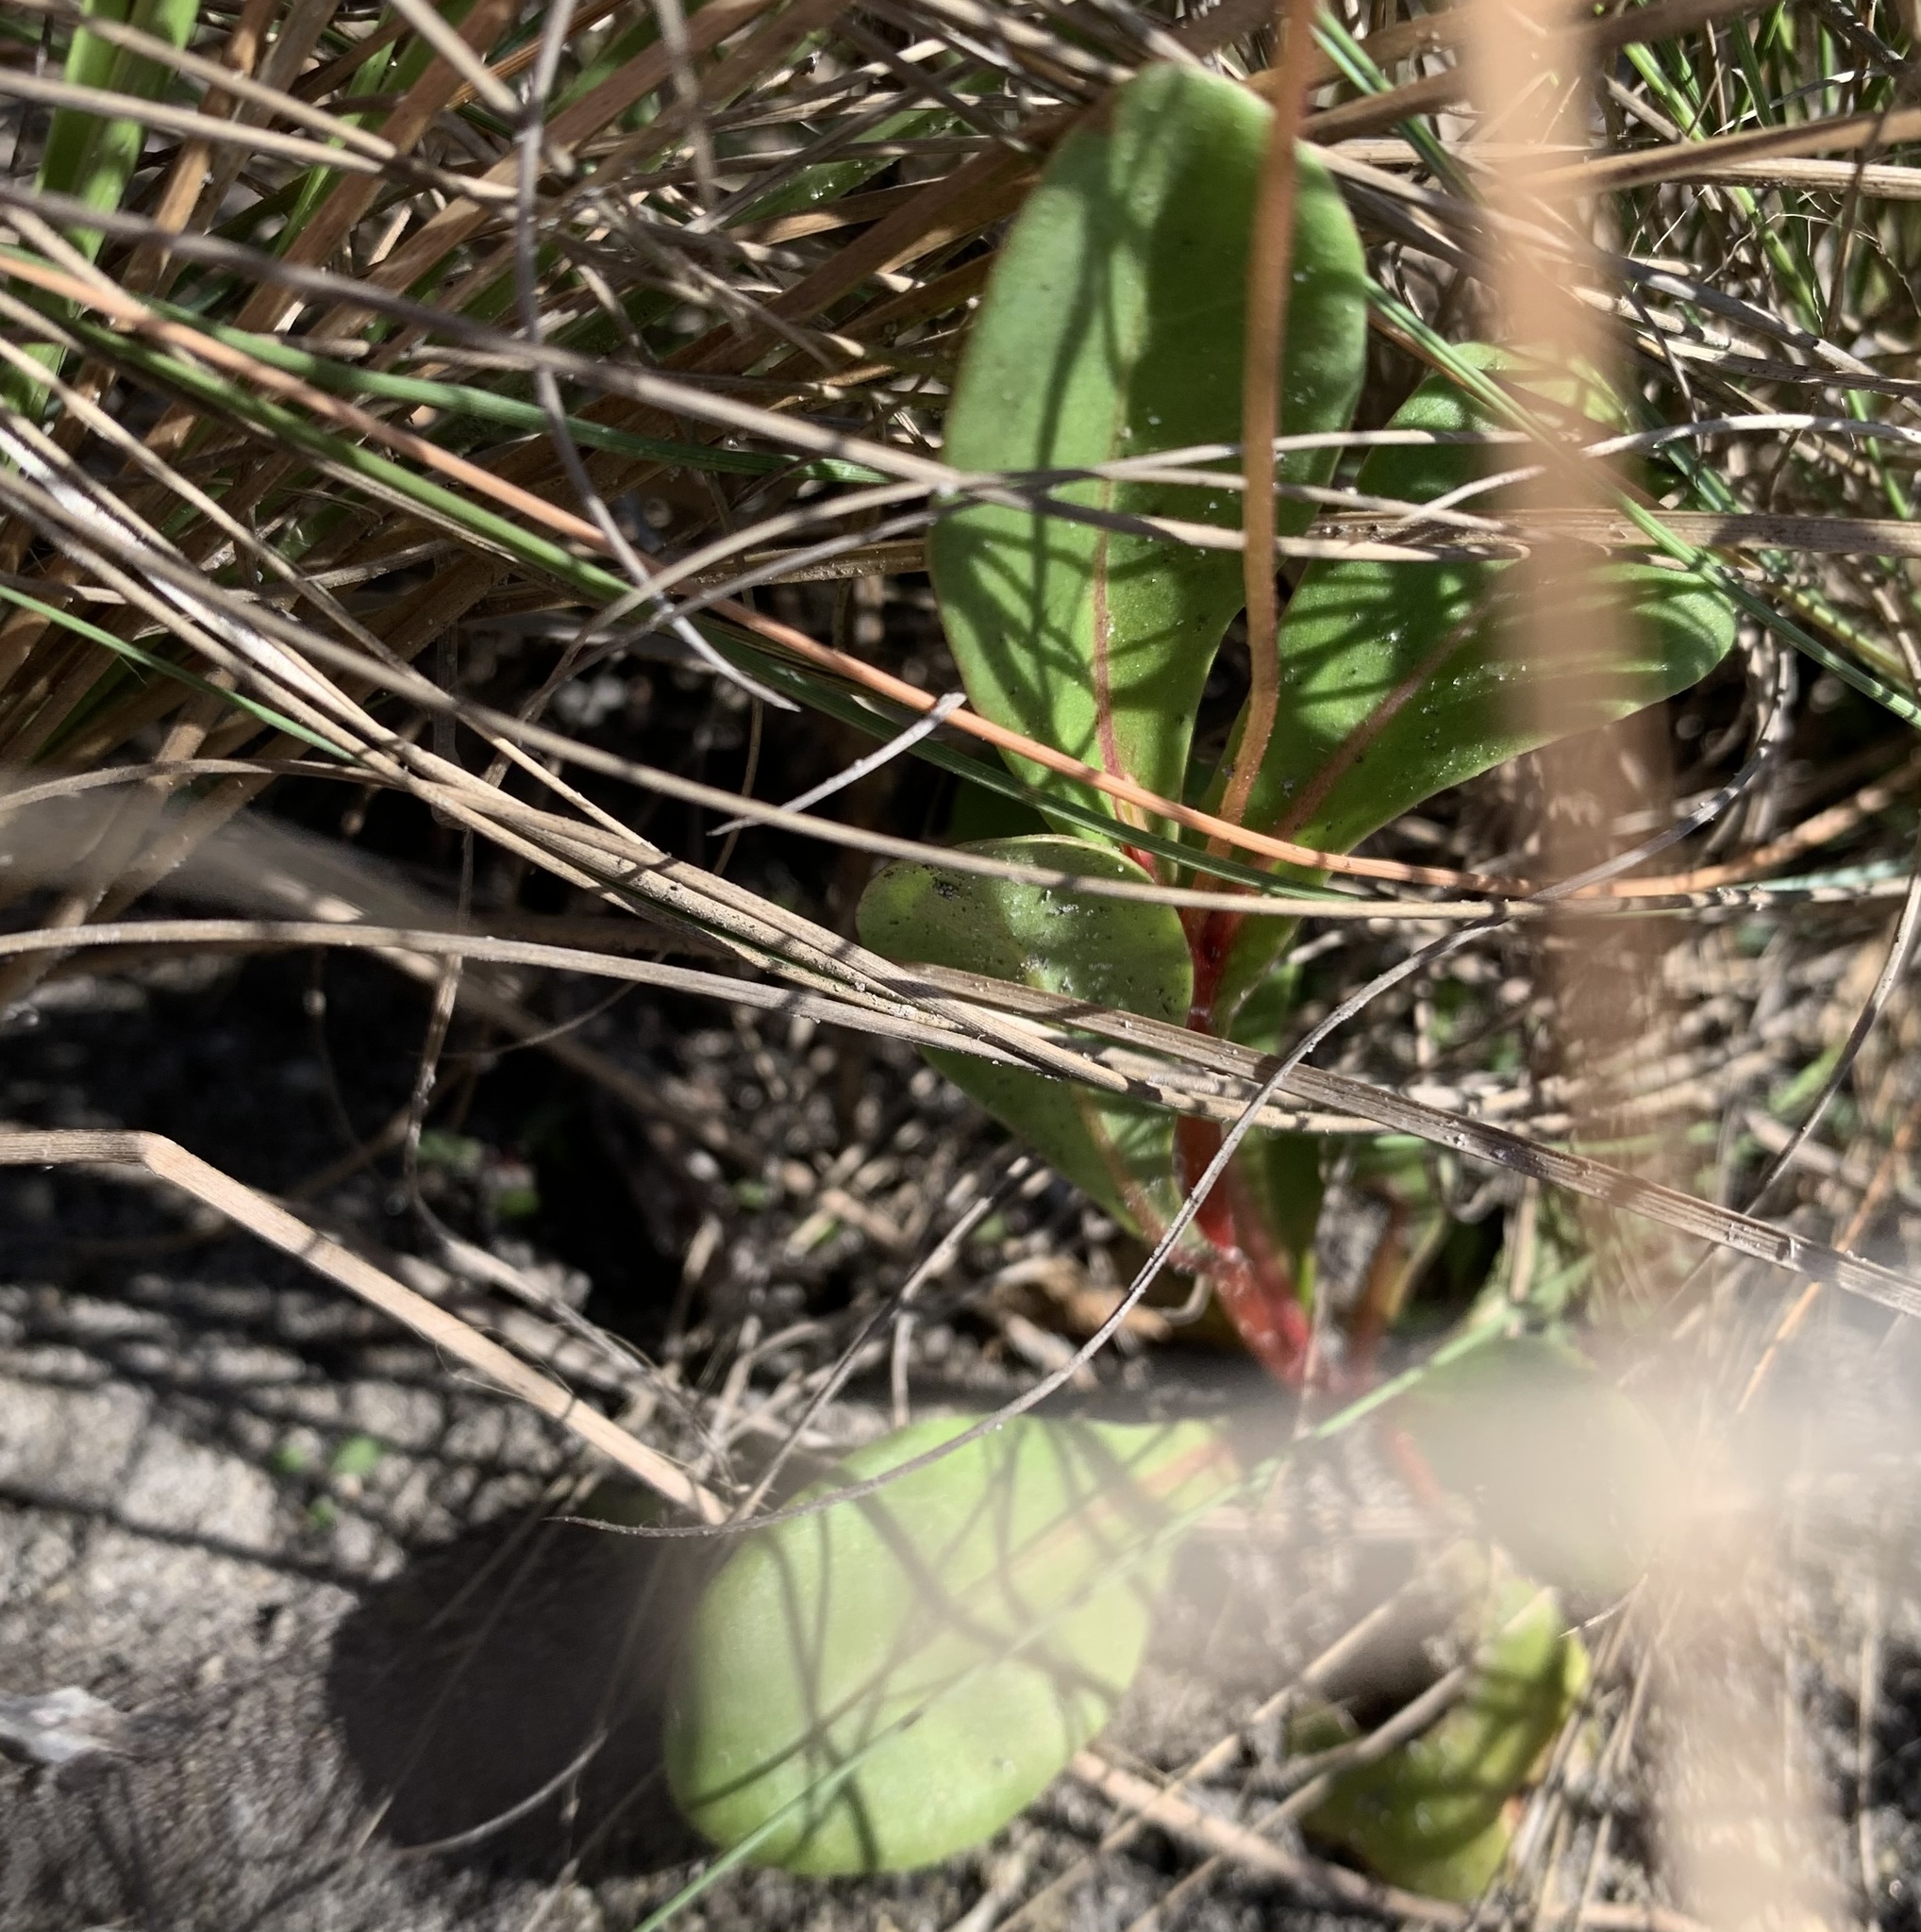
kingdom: Plantae
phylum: Tracheophyta
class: Magnoliopsida
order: Ericales
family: Primulaceae
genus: Samolus
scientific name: Samolus ebracteatus
